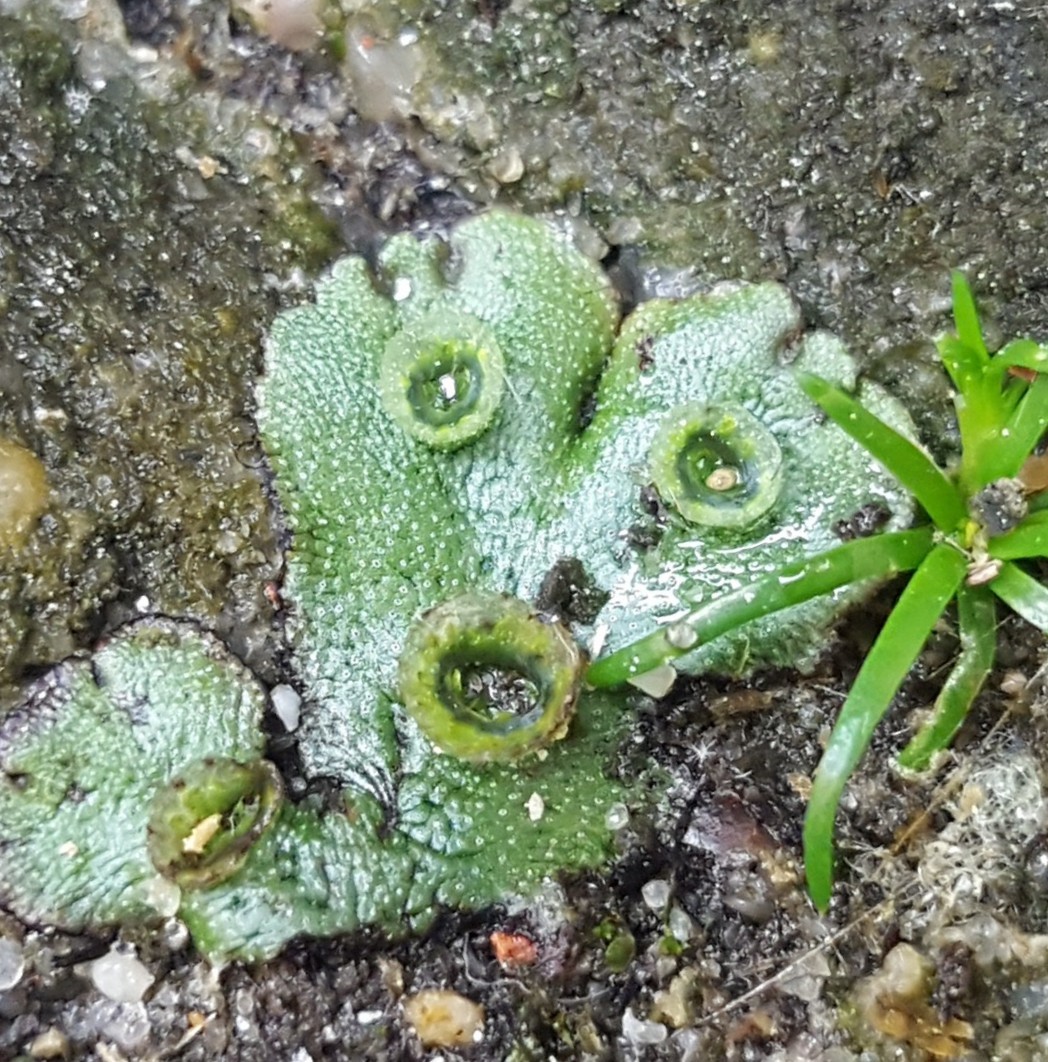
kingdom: Plantae
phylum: Marchantiophyta
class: Marchantiopsida
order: Marchantiales
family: Marchantiaceae
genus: Marchantia
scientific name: Marchantia polymorpha
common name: Common liverwort
